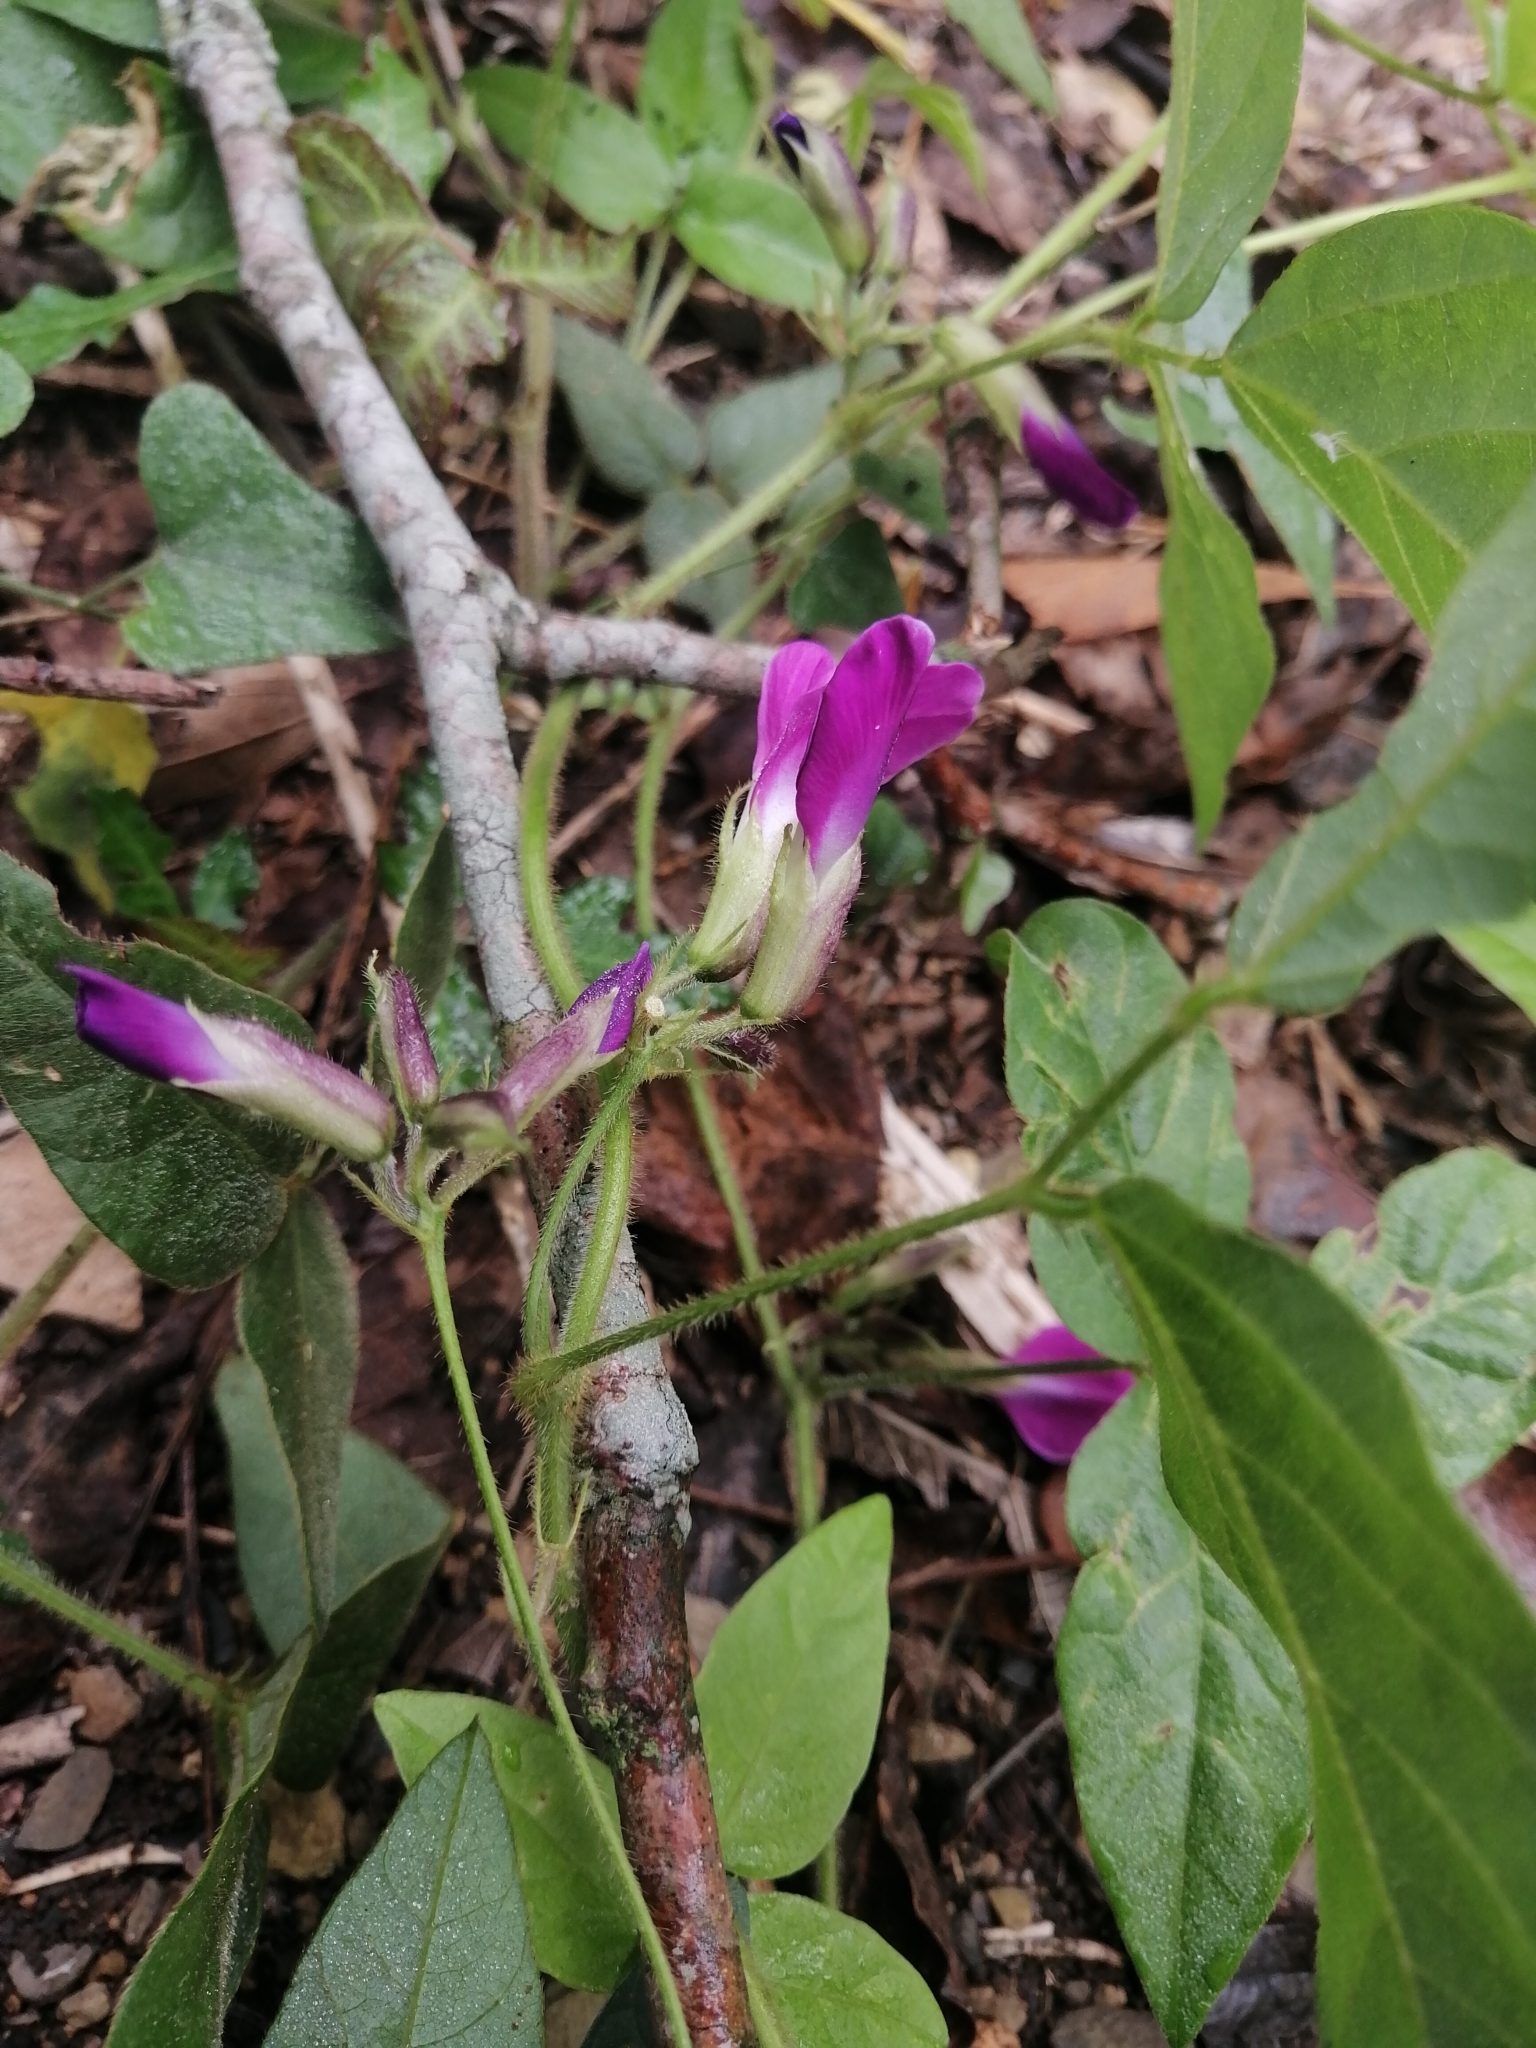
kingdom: Plantae
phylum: Tracheophyta
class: Magnoliopsida
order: Fabales
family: Fabaceae
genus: Cologania
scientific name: Cologania broussonetii
